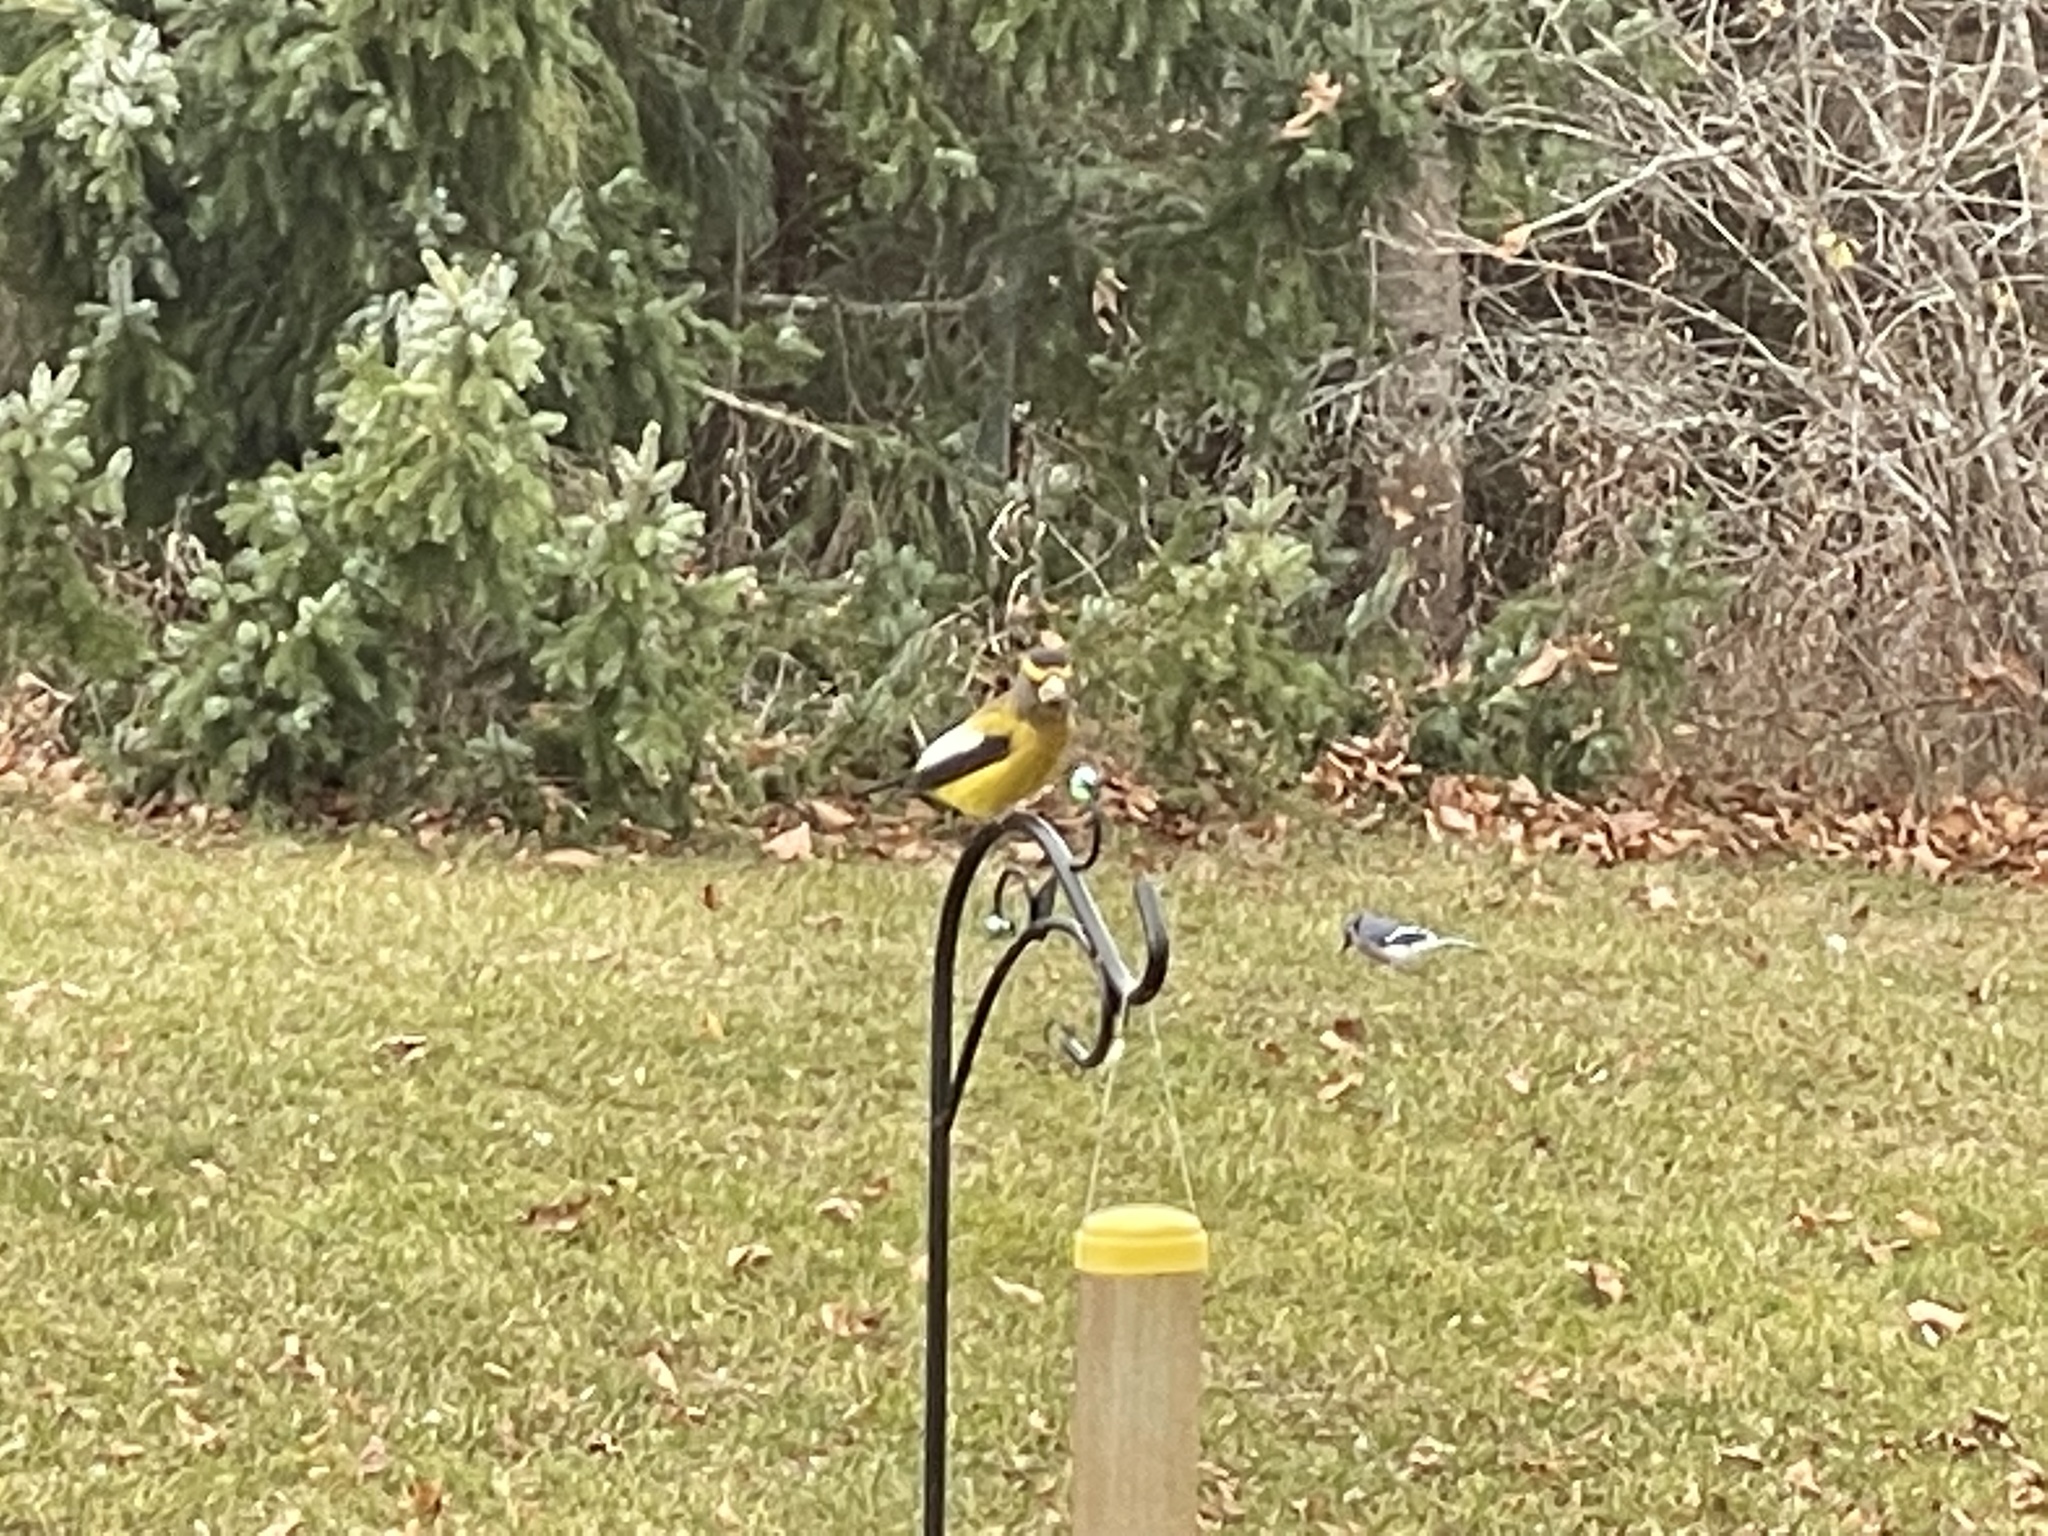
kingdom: Animalia
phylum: Chordata
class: Aves
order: Passeriformes
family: Fringillidae
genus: Hesperiphona
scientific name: Hesperiphona vespertina
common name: Evening grosbeak
